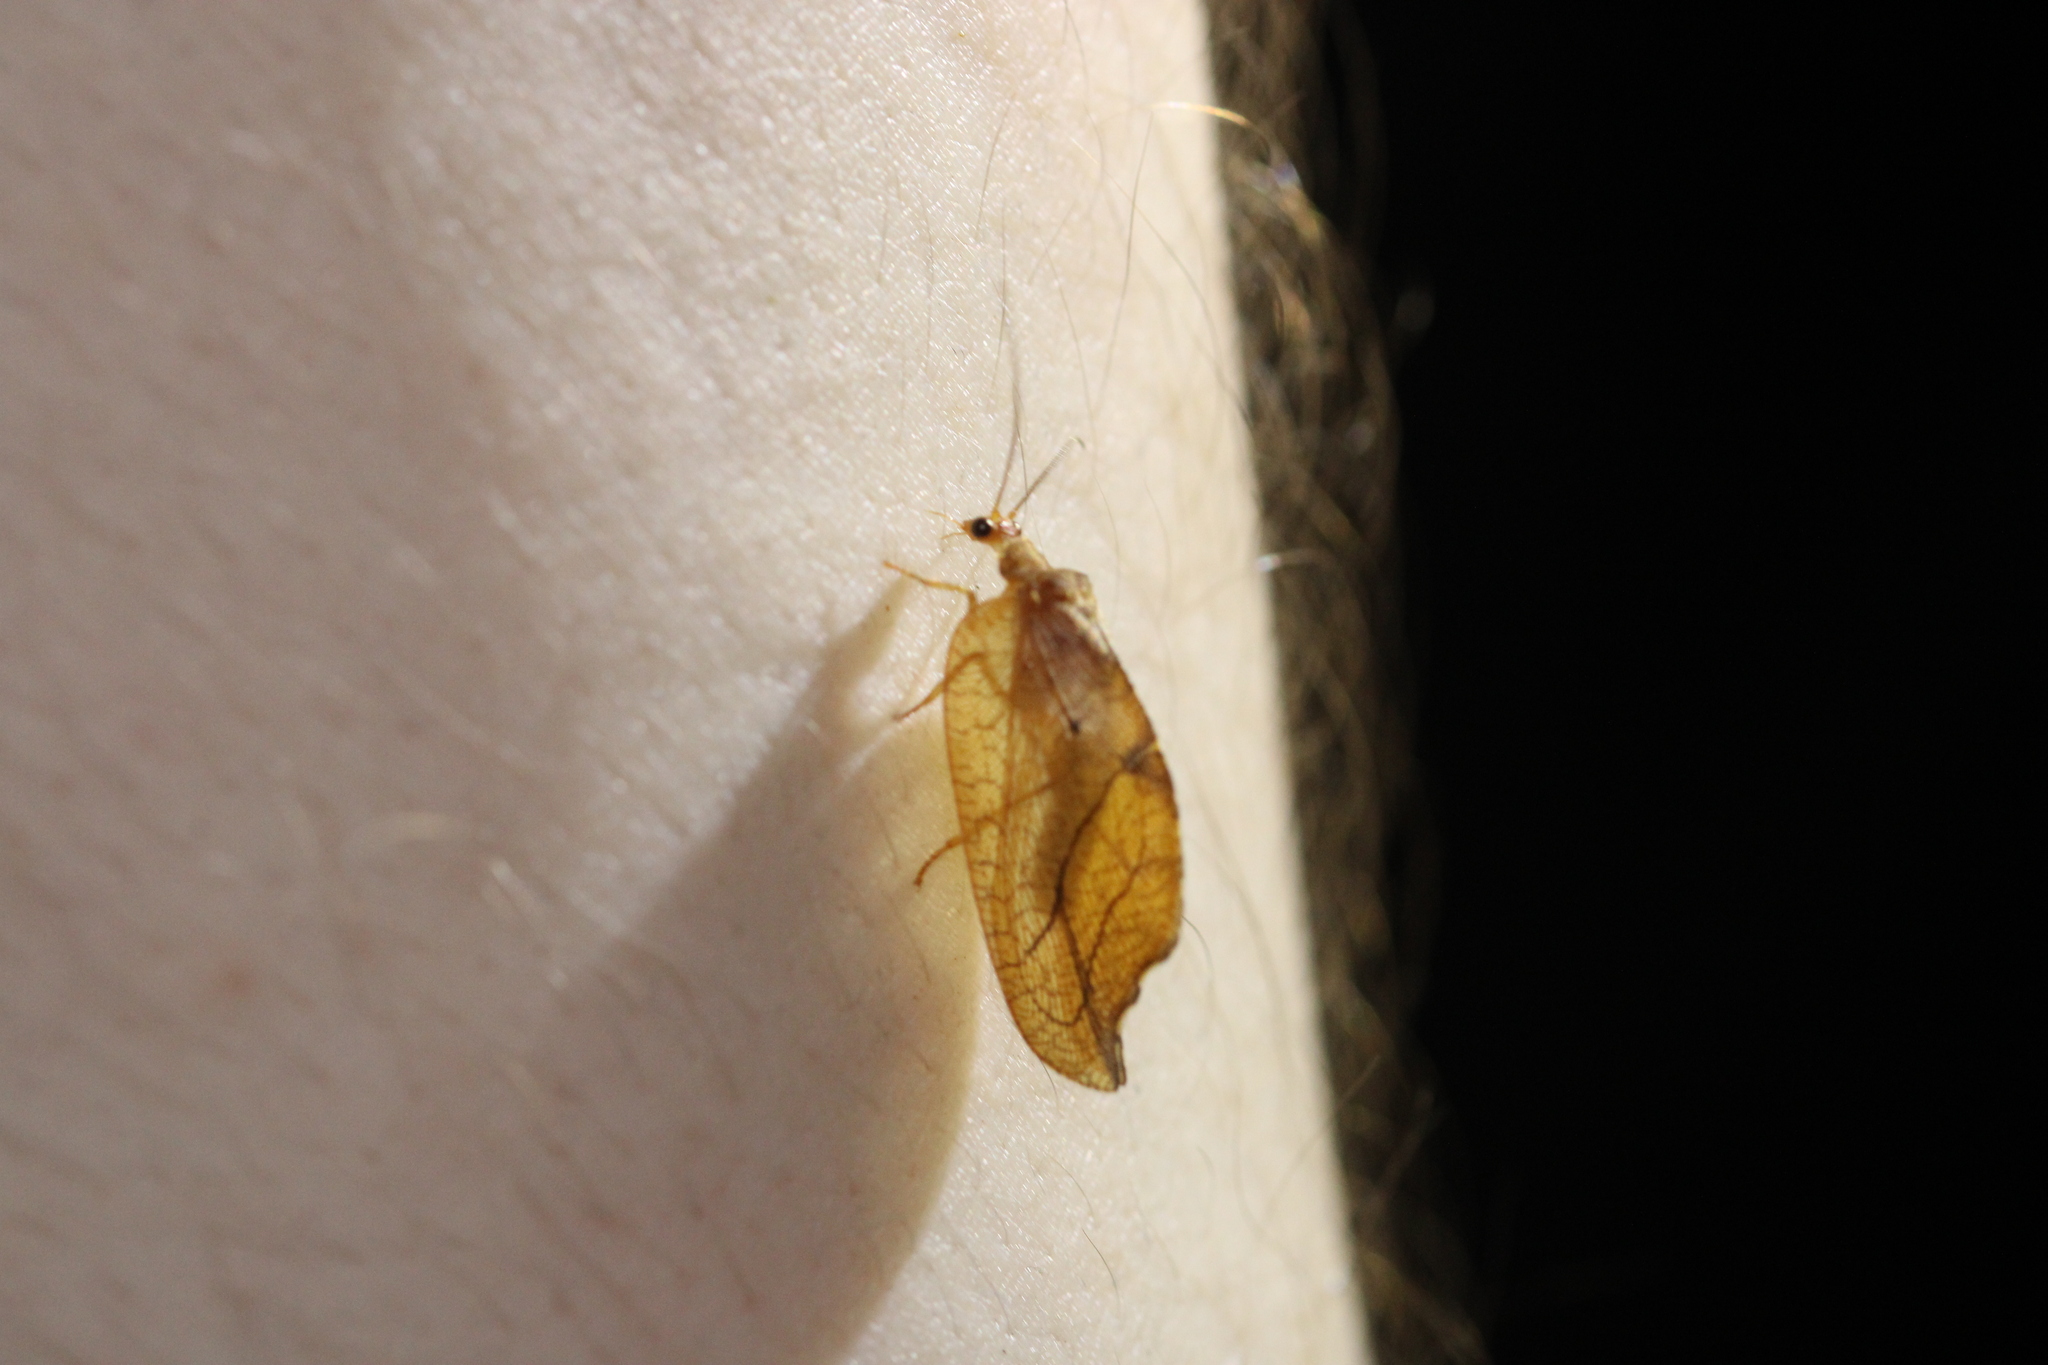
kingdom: Animalia
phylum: Arthropoda
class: Insecta
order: Neuroptera
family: Hemerobiidae
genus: Drepanepteryx
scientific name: Drepanepteryx phalaenoides
